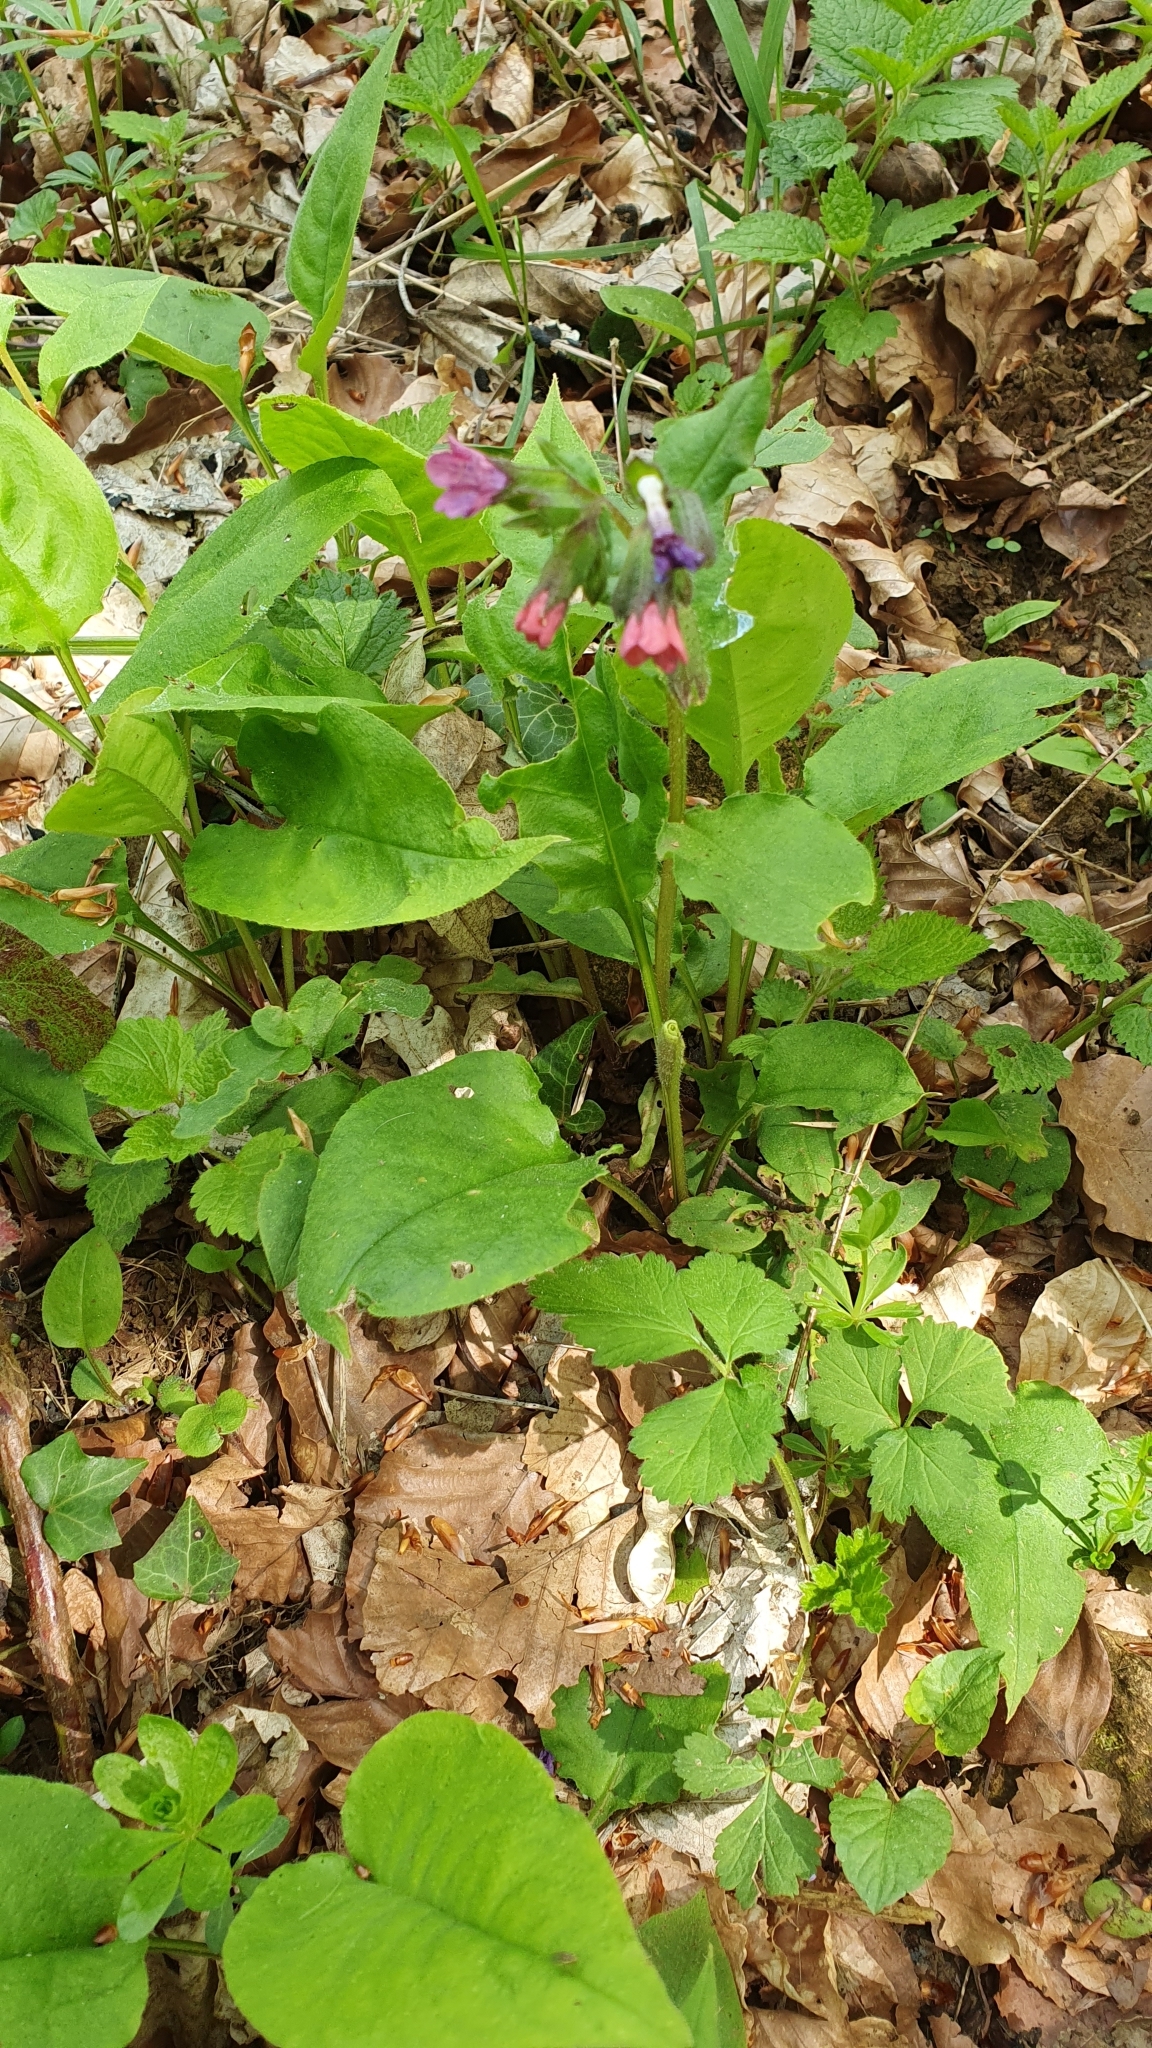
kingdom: Plantae
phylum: Tracheophyta
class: Magnoliopsida
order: Boraginales
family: Boraginaceae
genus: Pulmonaria
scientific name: Pulmonaria obscura
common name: Suffolk lungwort
